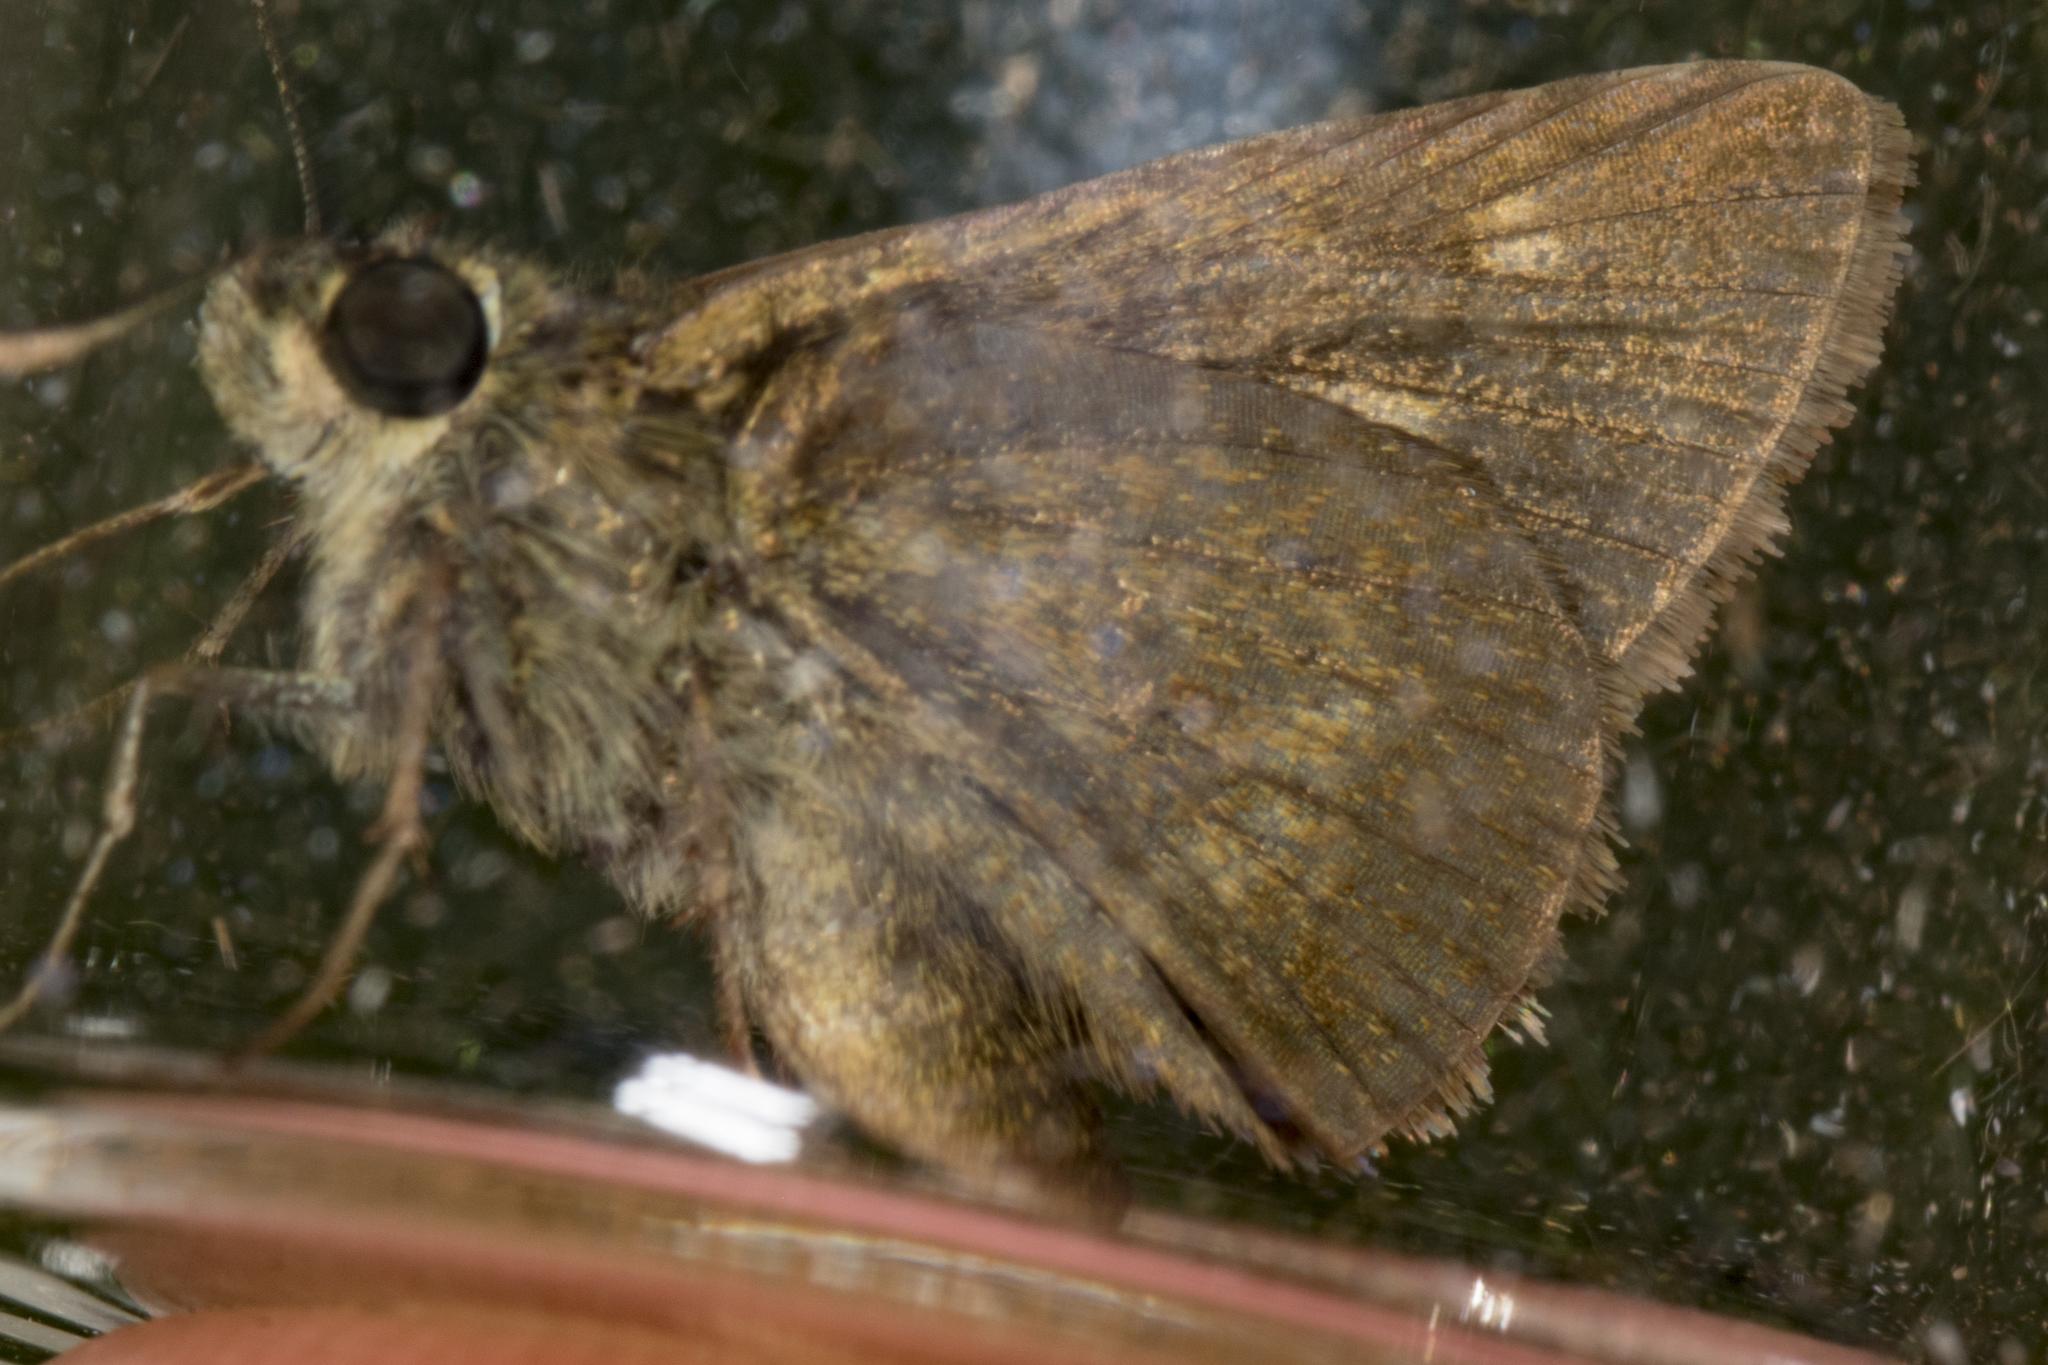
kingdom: Animalia
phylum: Arthropoda
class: Insecta
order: Lepidoptera
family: Hesperiidae
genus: Polites
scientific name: Polites egeremet
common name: Northern broken-dash
